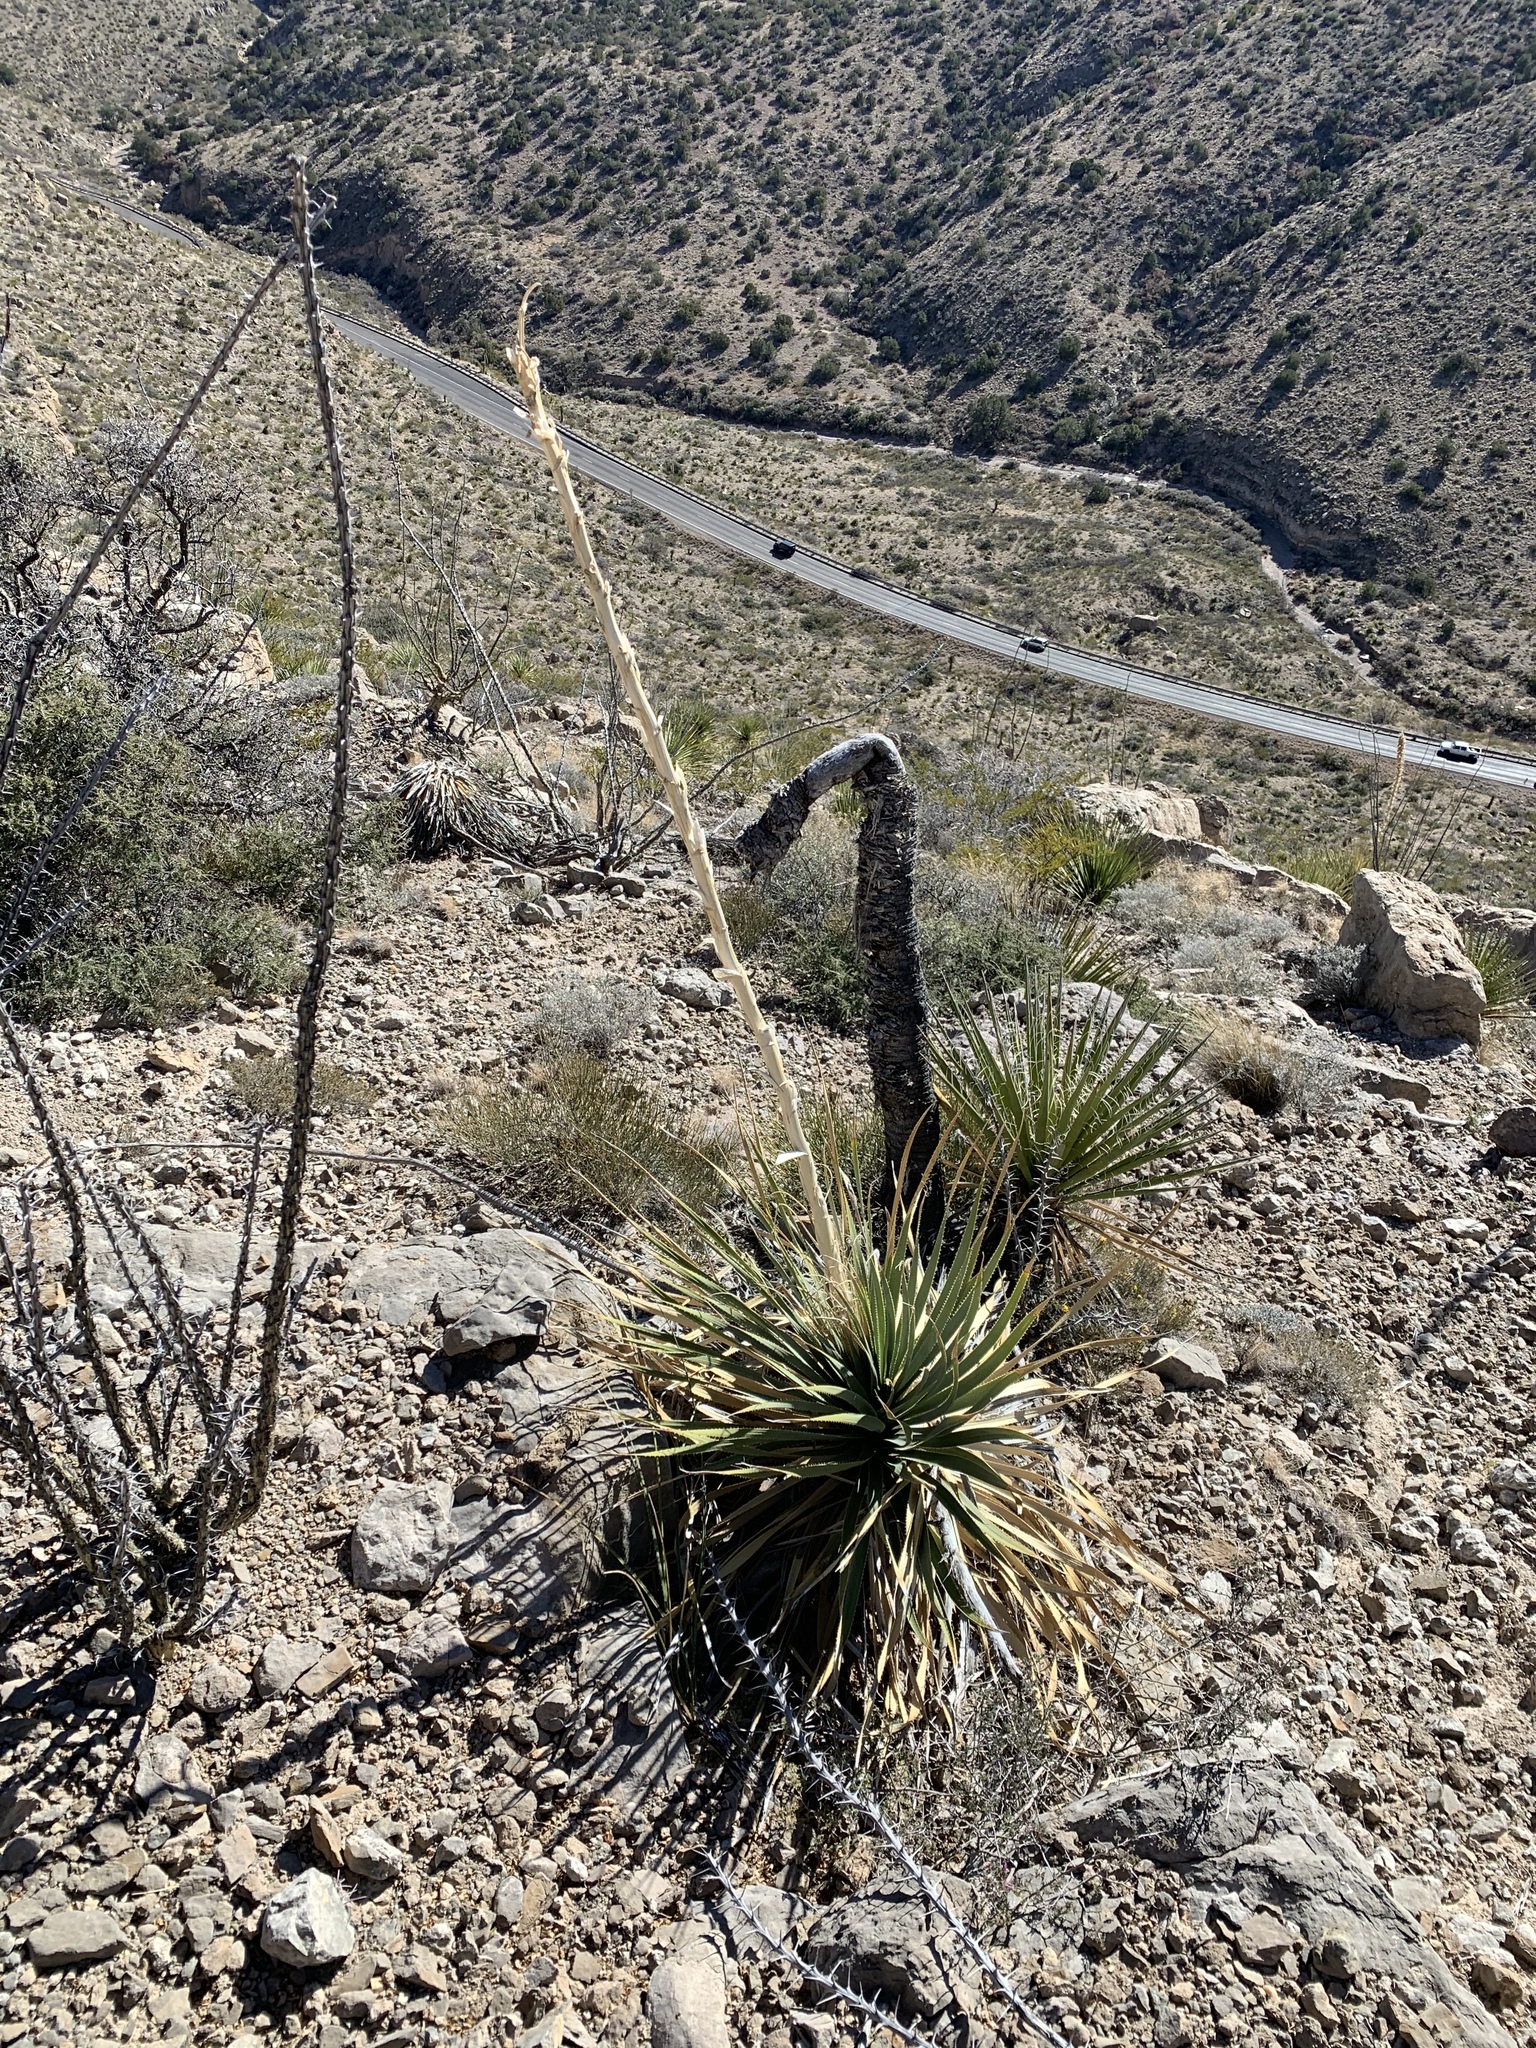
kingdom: Plantae
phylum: Tracheophyta
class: Liliopsida
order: Asparagales
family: Asparagaceae
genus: Dasylirion
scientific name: Dasylirion wheeleri
